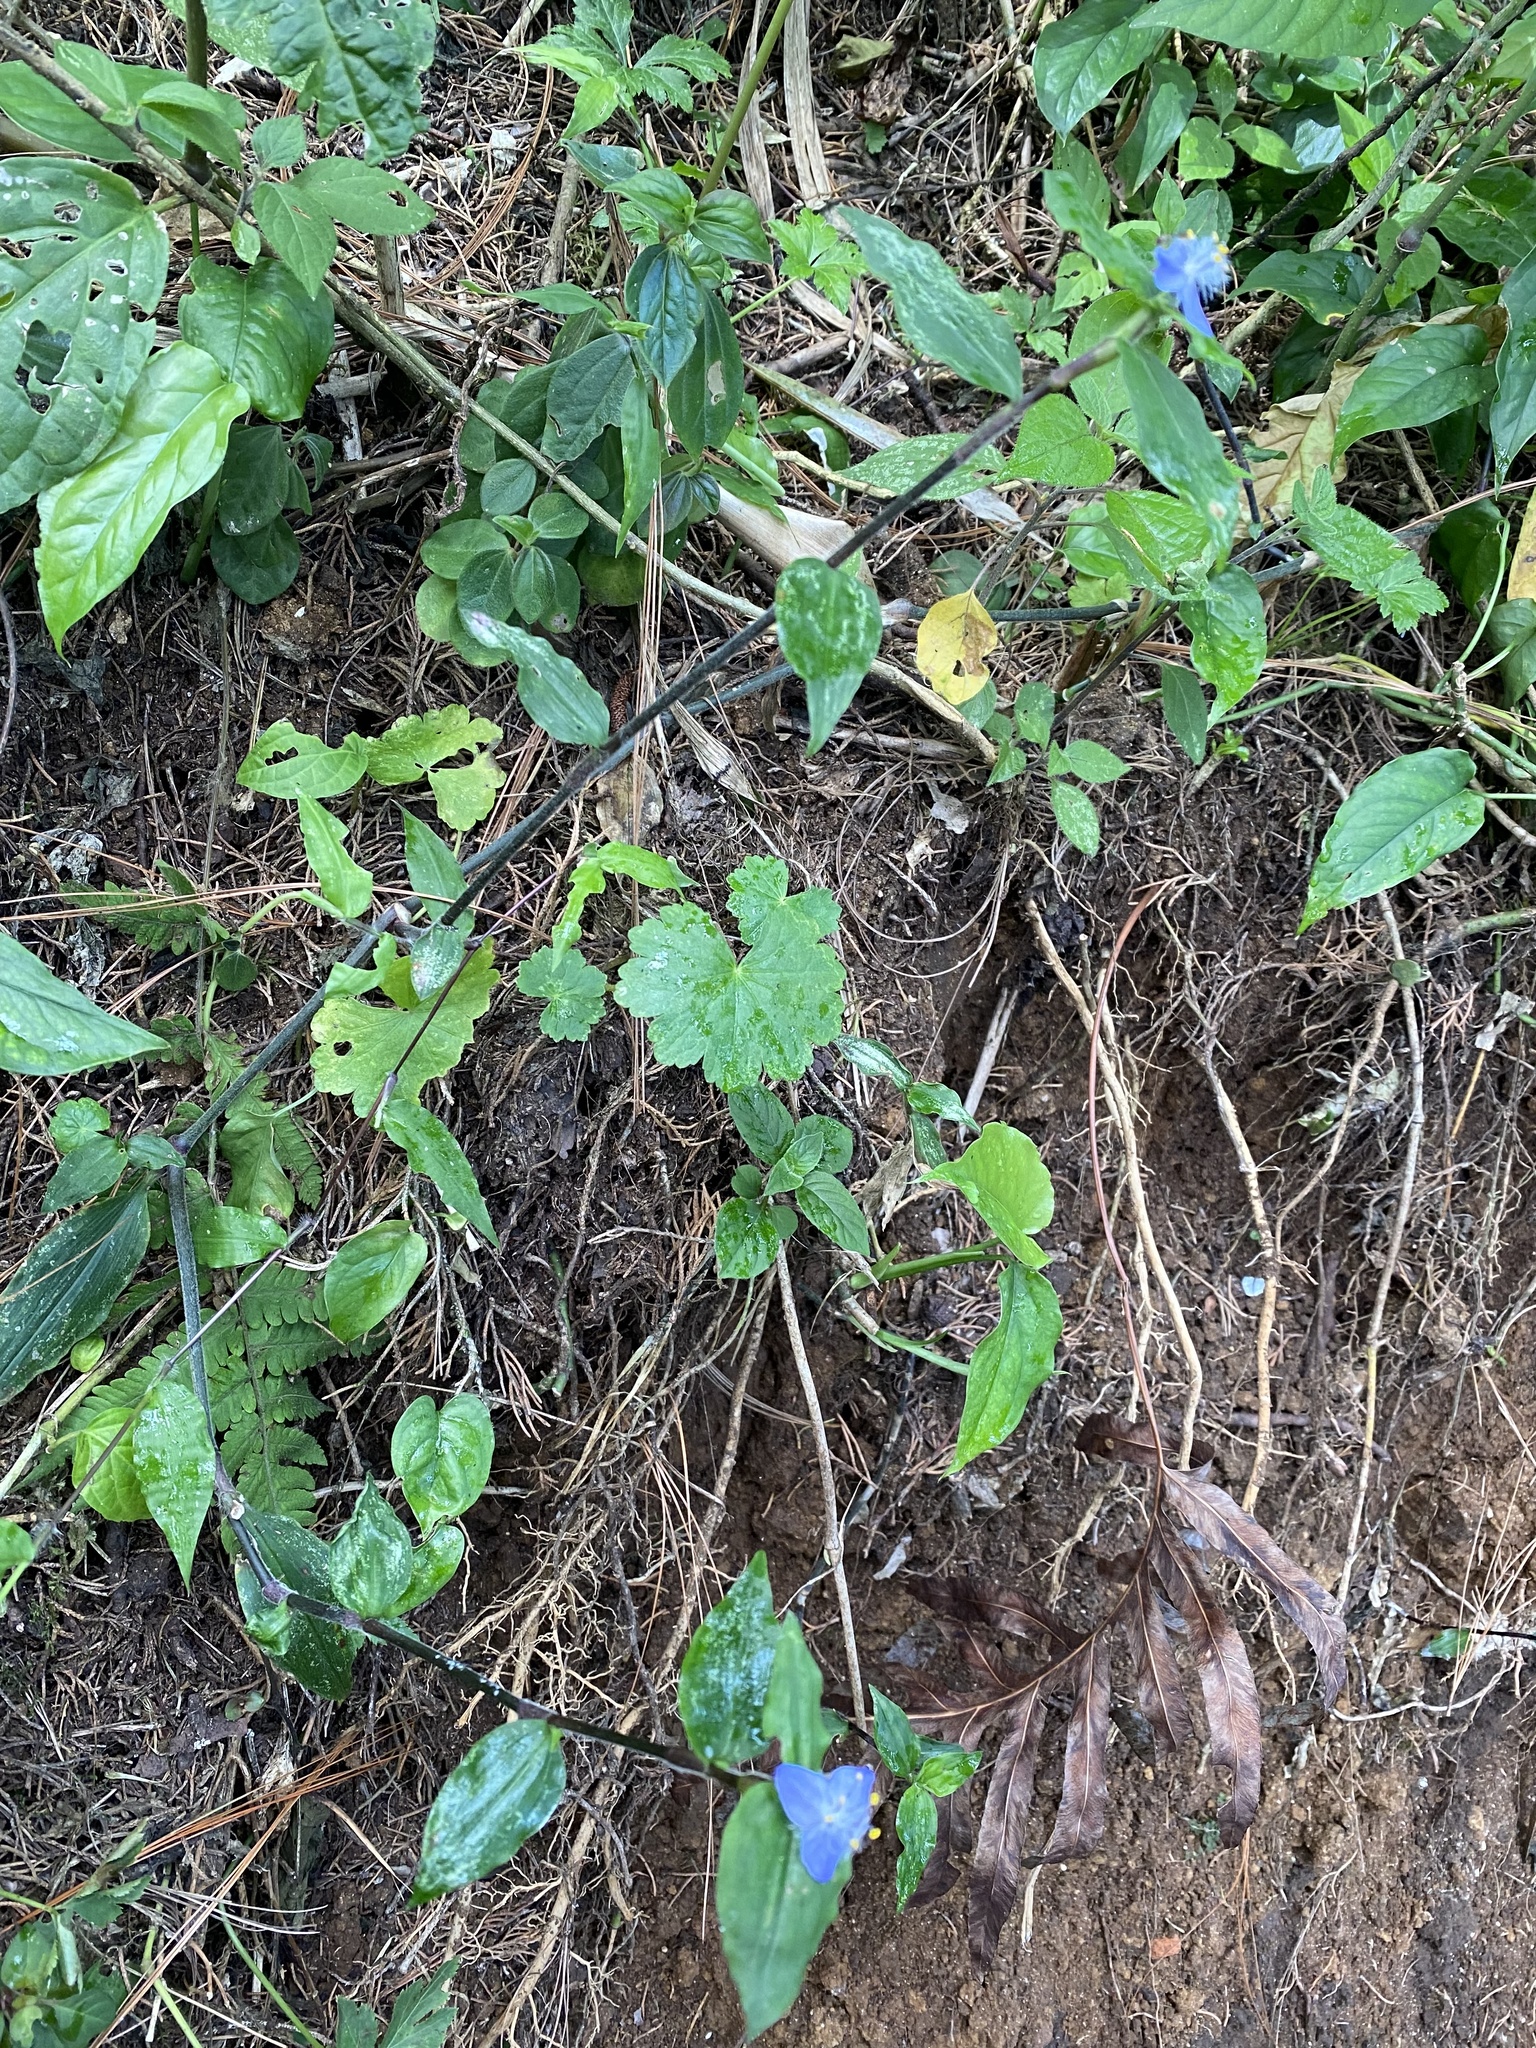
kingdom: Plantae
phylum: Tracheophyta
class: Liliopsida
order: Commelinales
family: Commelinaceae
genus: Elasis
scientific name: Elasis guatemalensis
